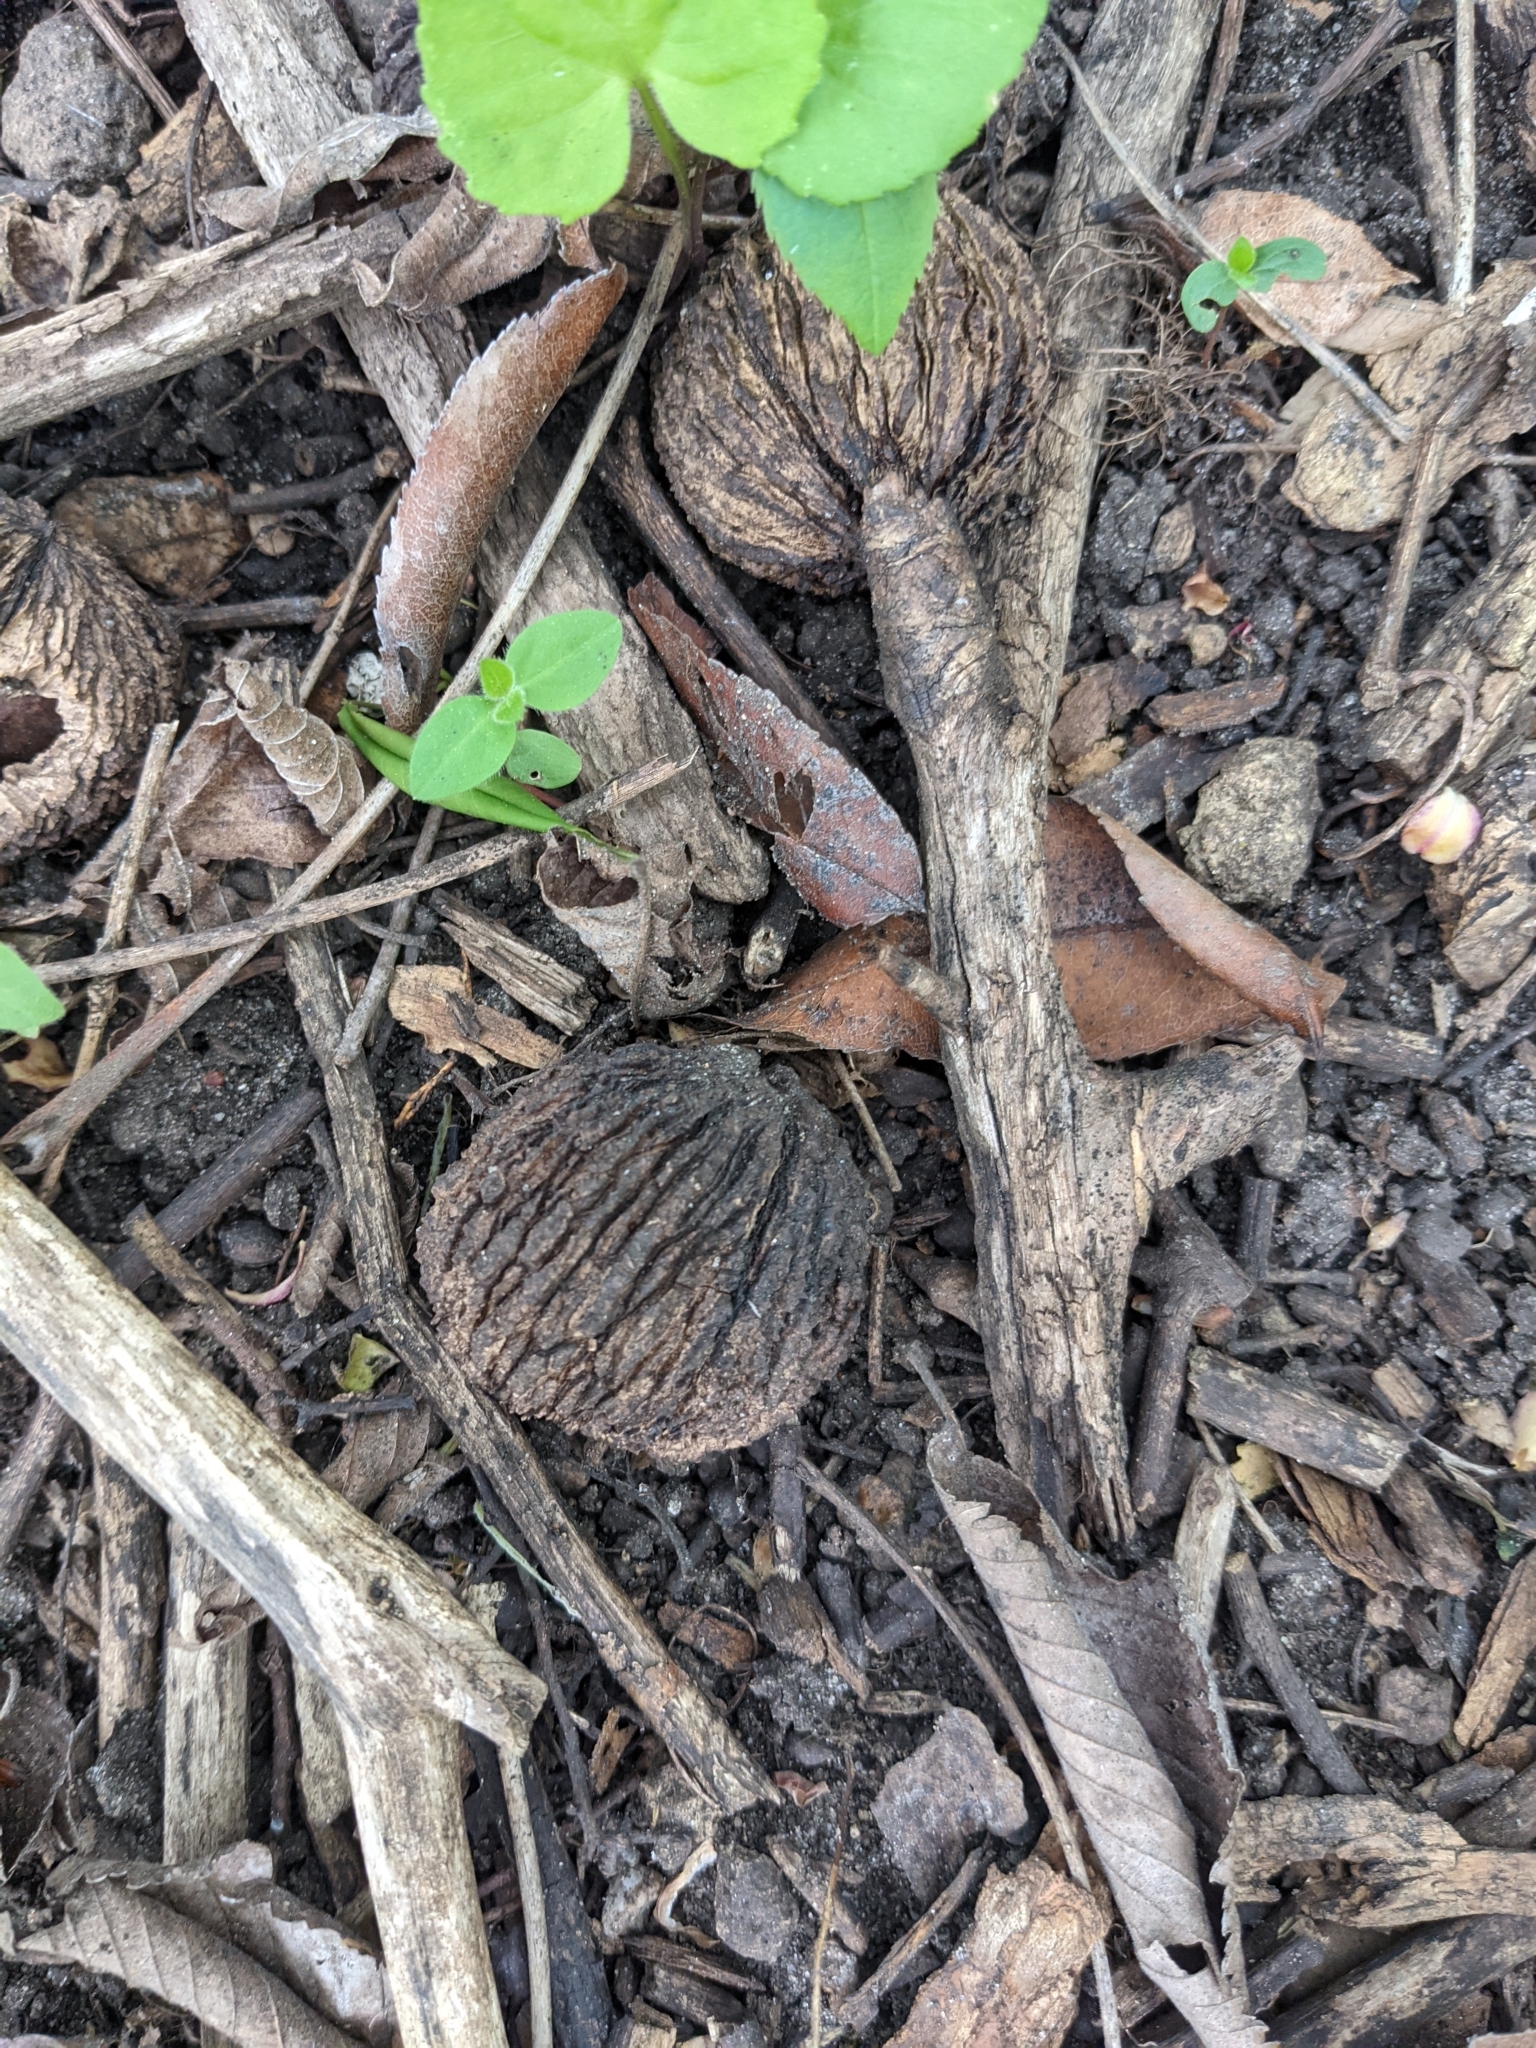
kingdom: Plantae
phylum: Tracheophyta
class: Magnoliopsida
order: Fagales
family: Juglandaceae
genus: Juglans
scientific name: Juglans nigra
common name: Black walnut
